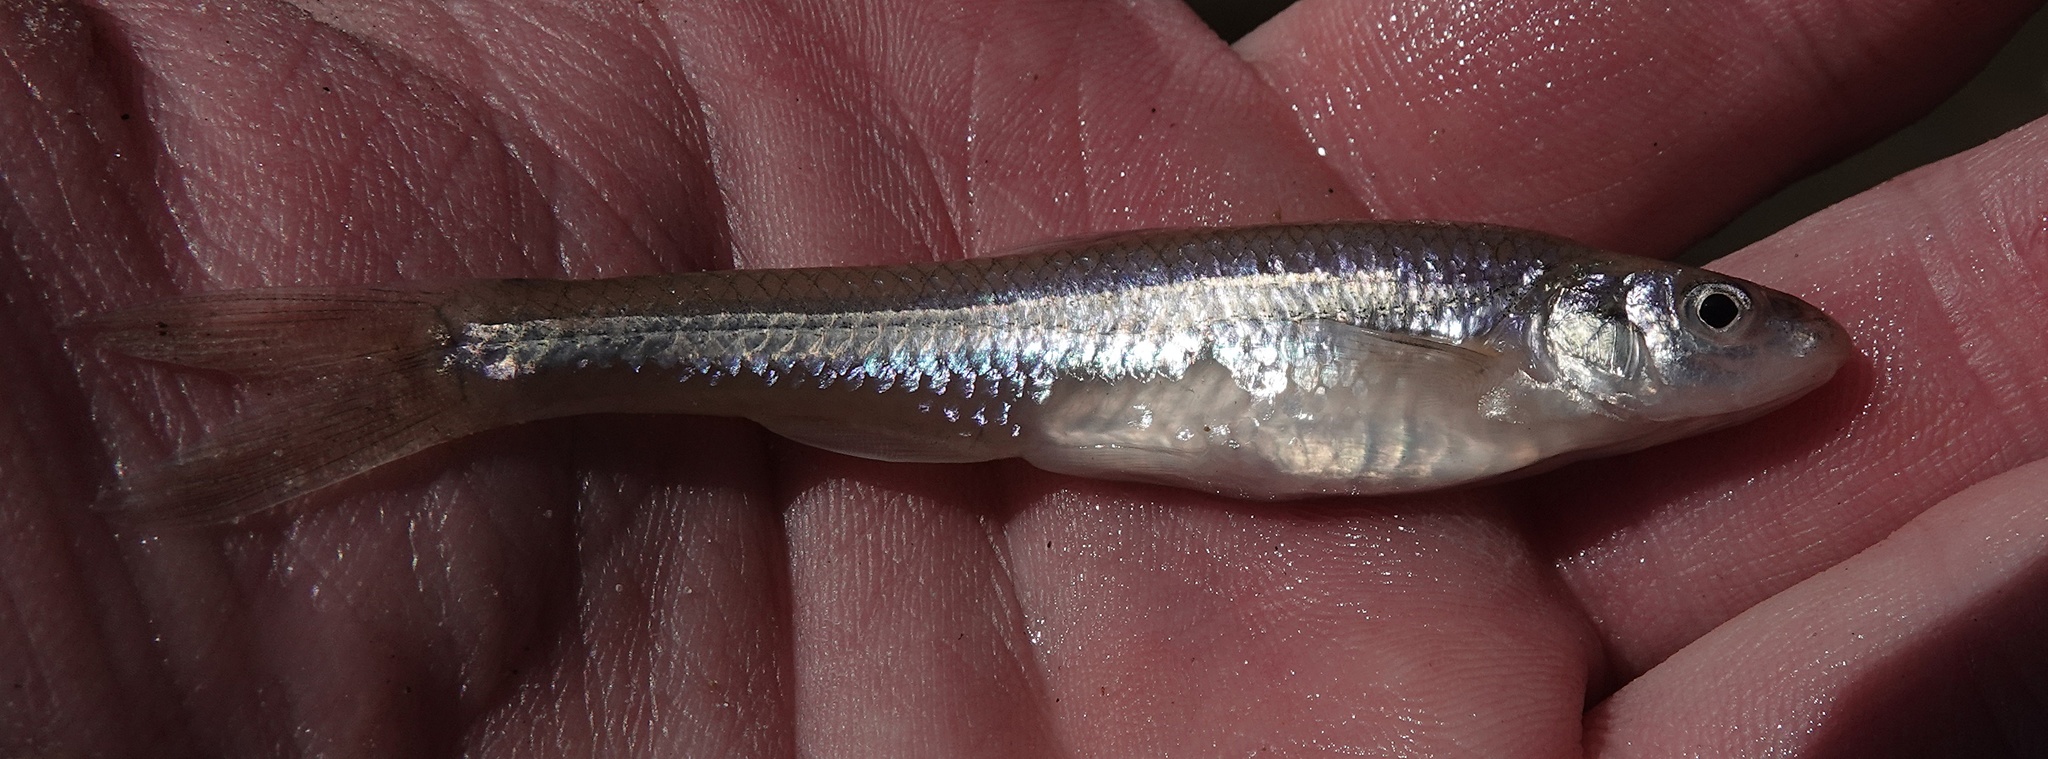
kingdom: Animalia
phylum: Chordata
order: Cypriniformes
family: Cyprinidae
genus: Ericymba
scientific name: Ericymba
